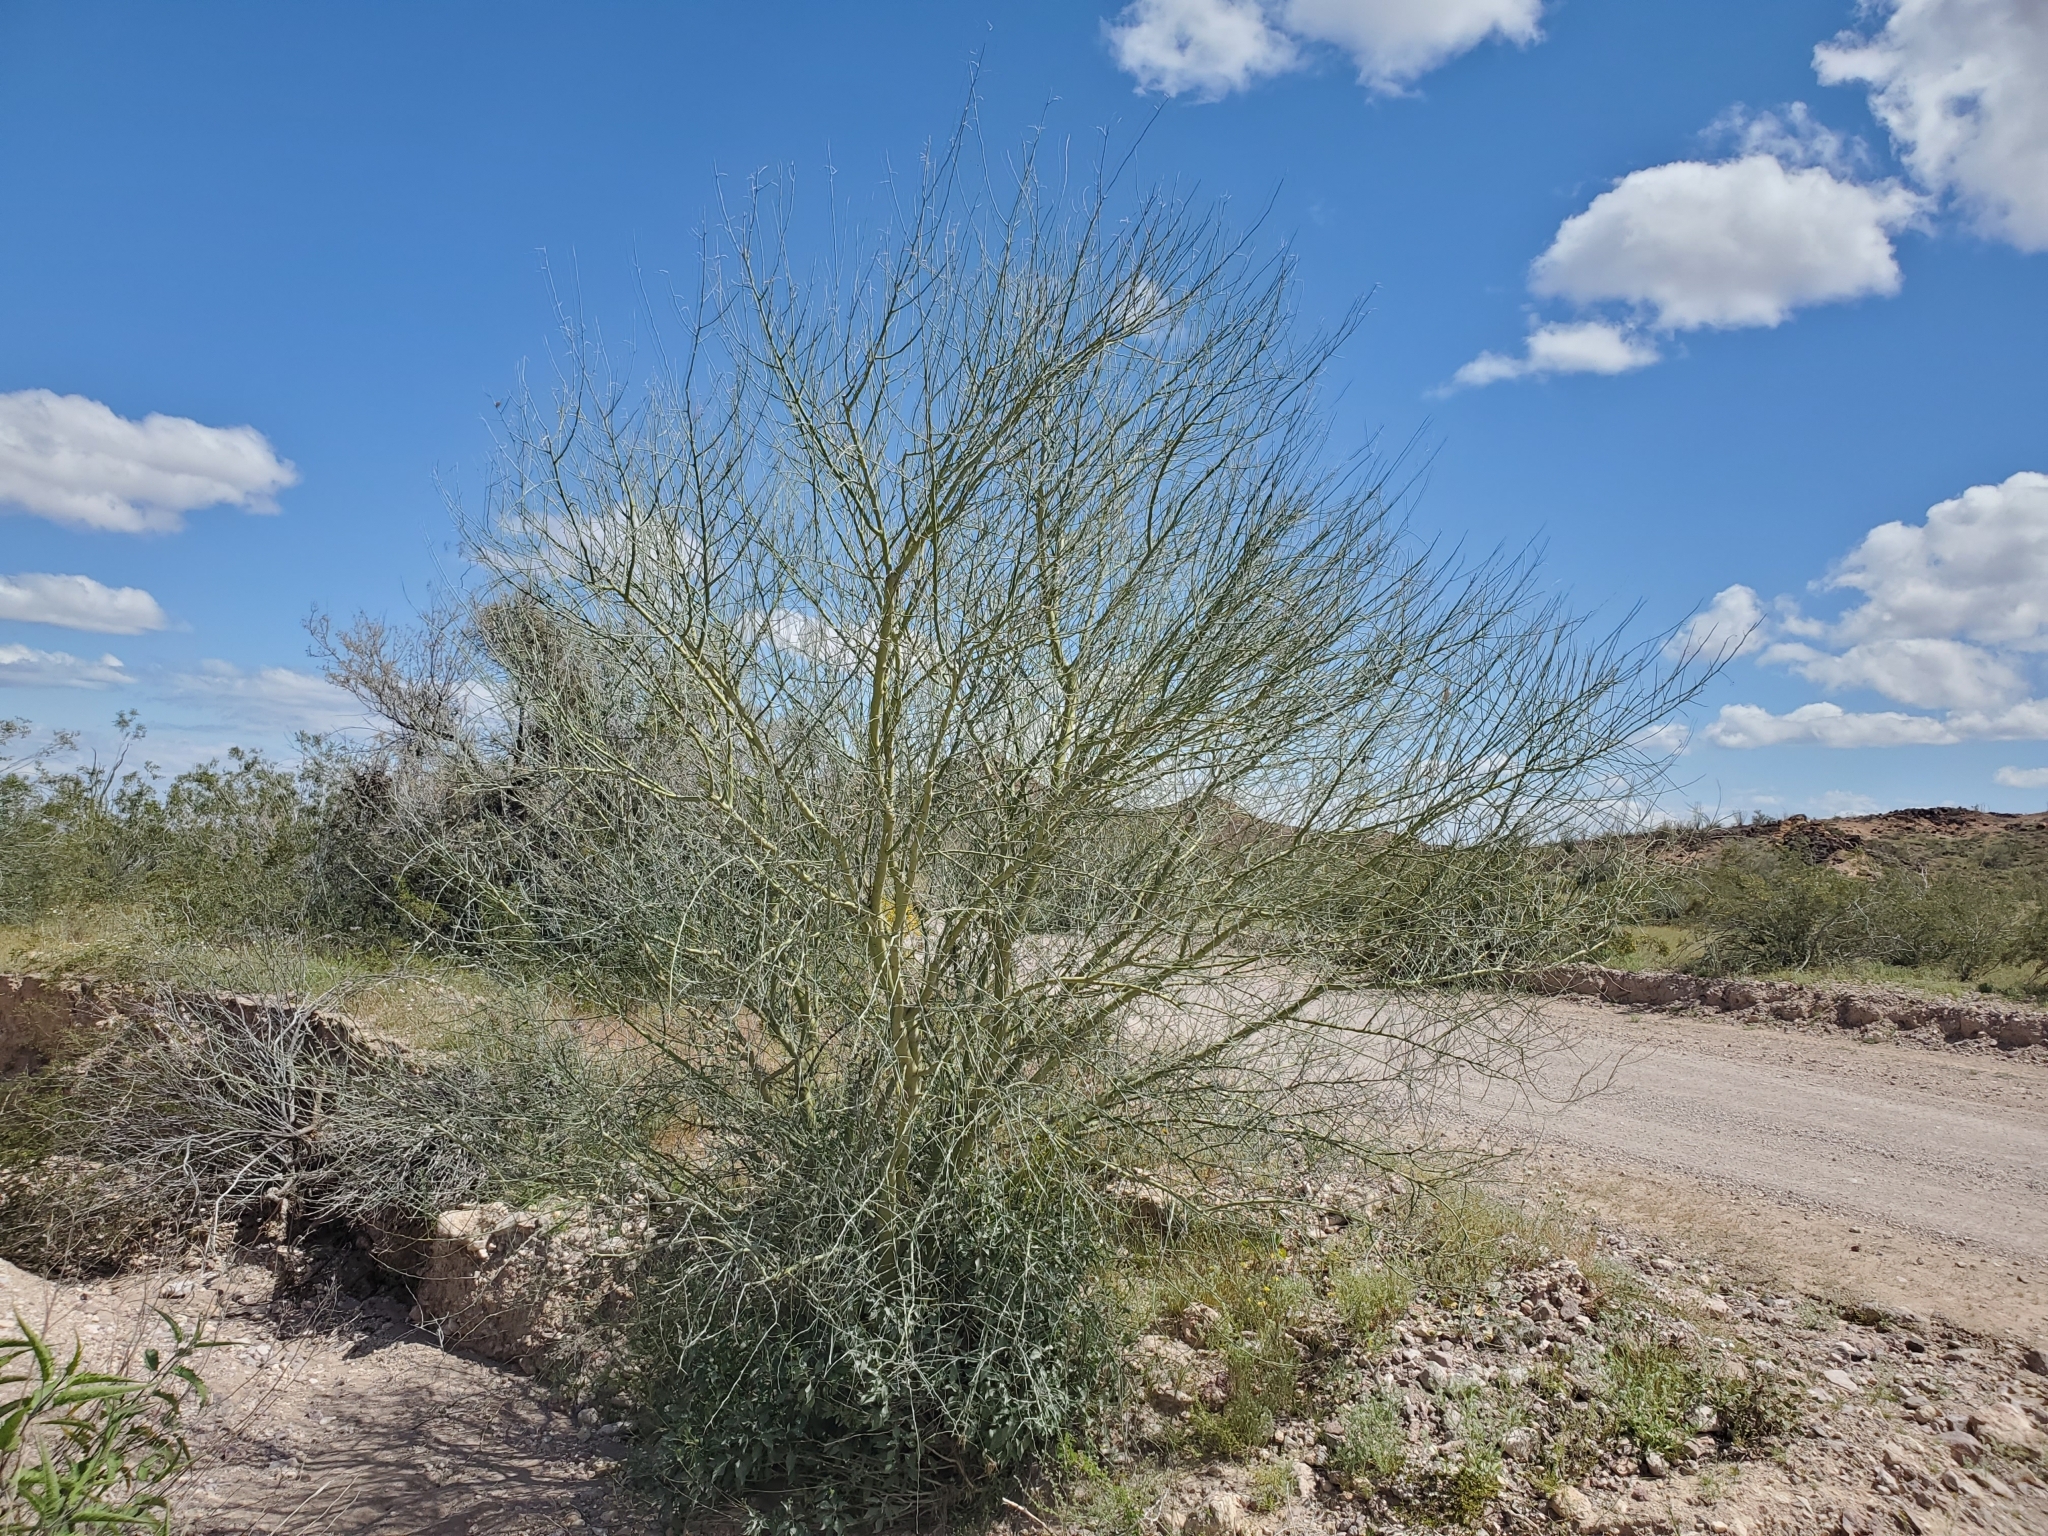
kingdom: Plantae
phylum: Tracheophyta
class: Magnoliopsida
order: Fabales
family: Fabaceae
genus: Parkinsonia
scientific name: Parkinsonia florida
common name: Blue paloverde
